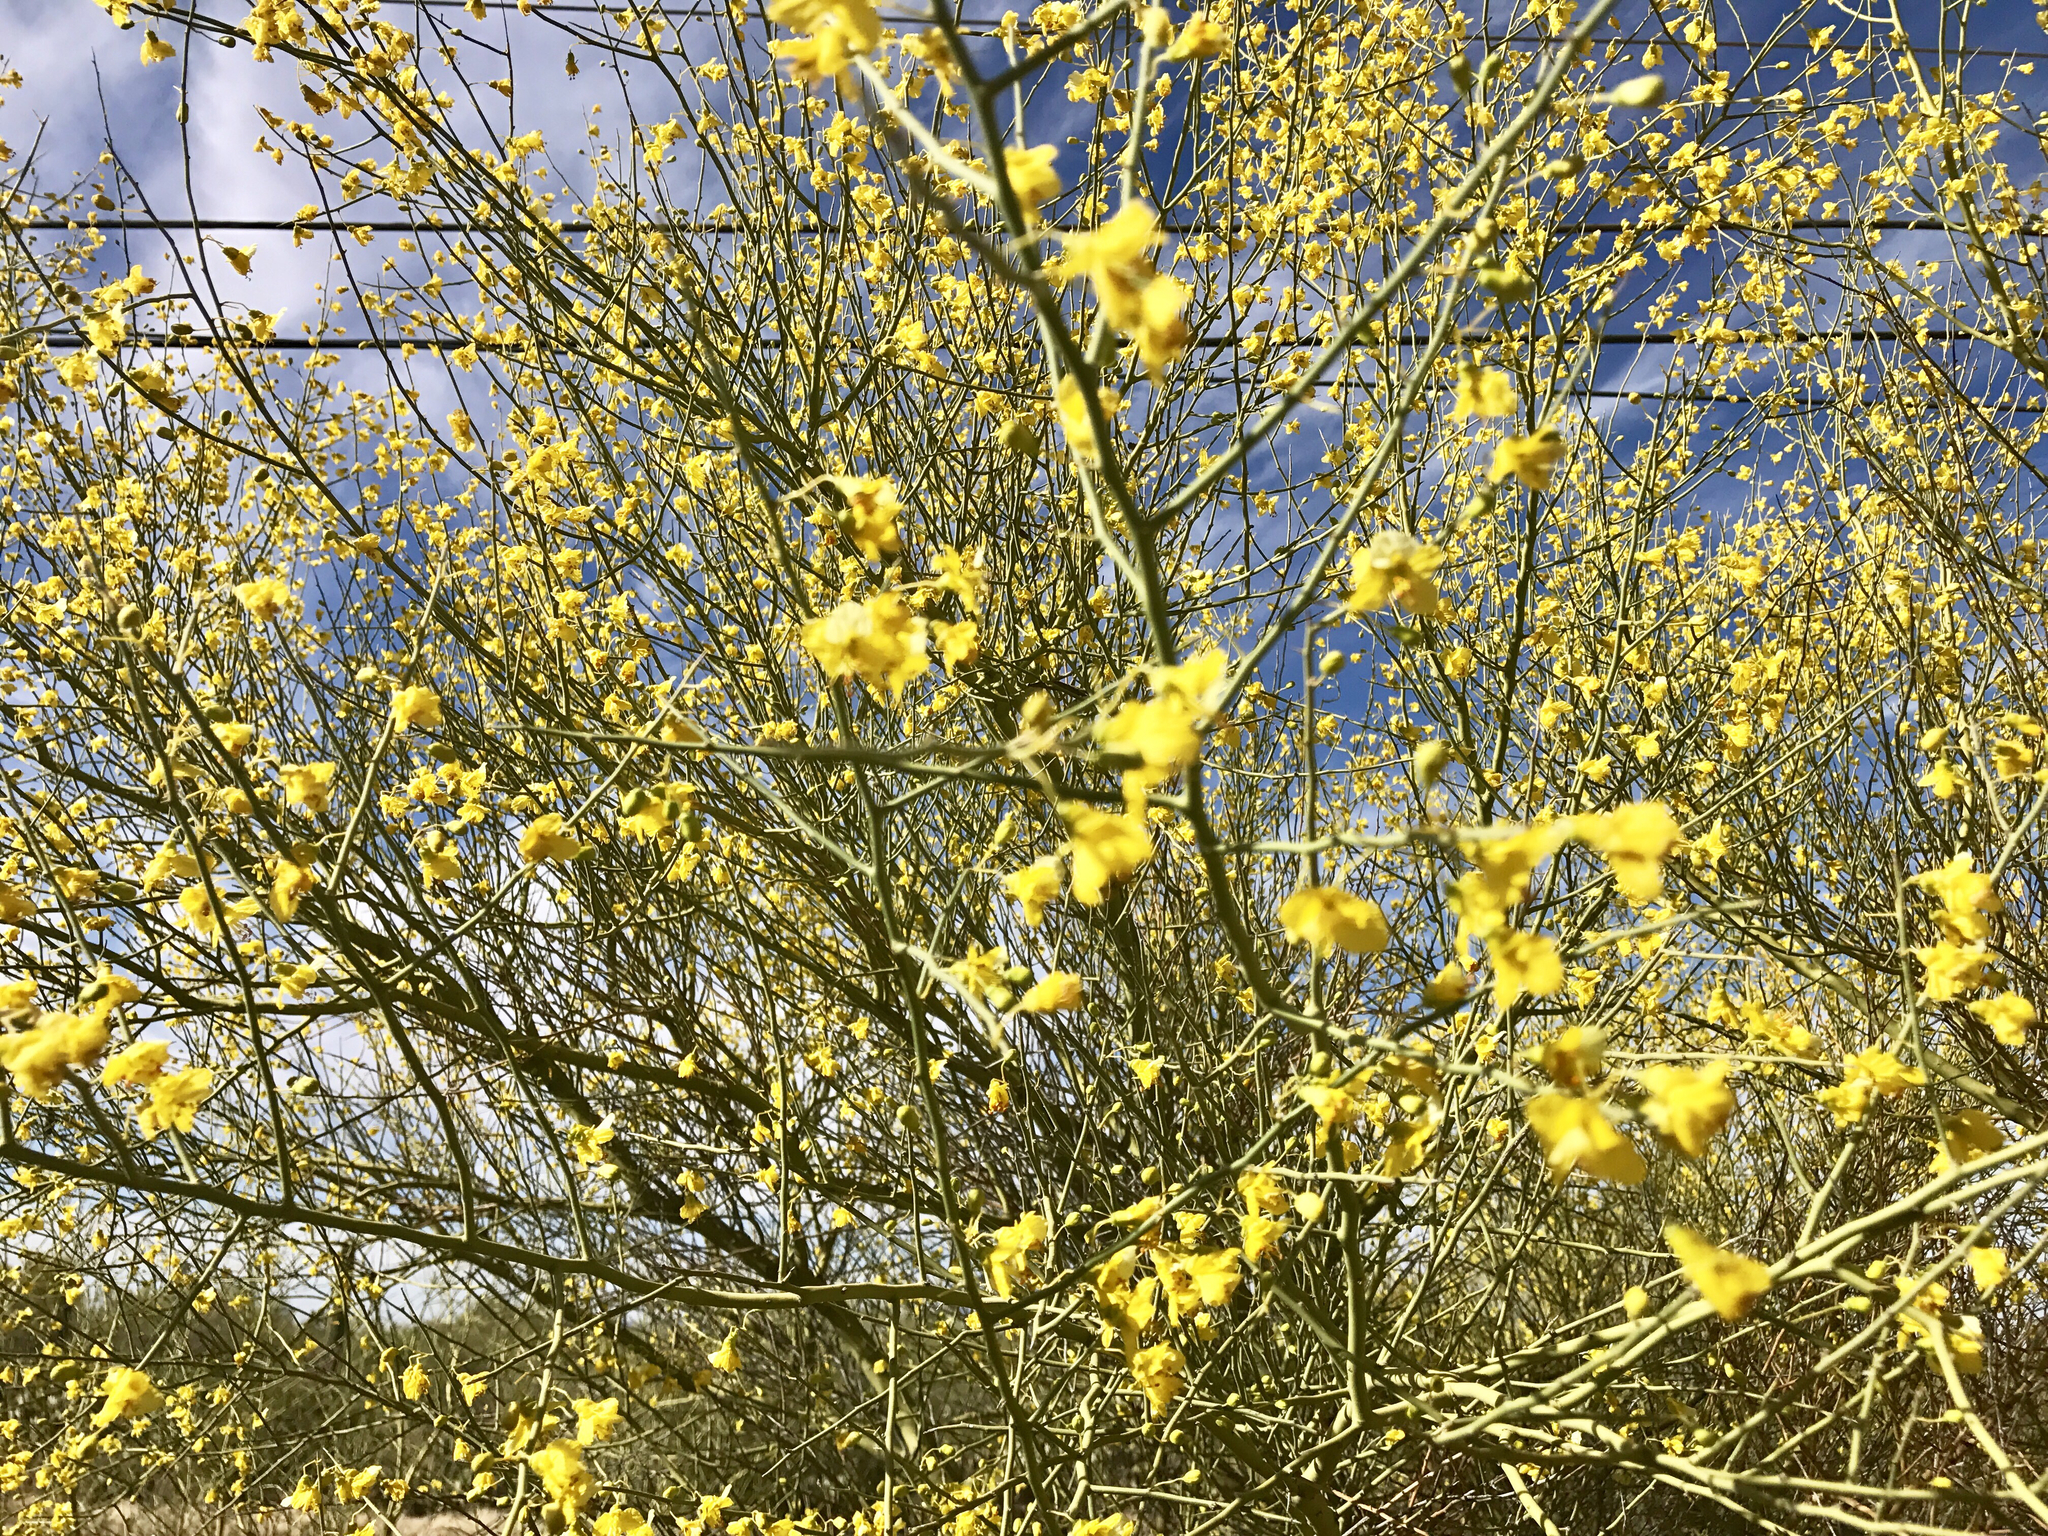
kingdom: Plantae
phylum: Tracheophyta
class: Magnoliopsida
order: Fabales
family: Fabaceae
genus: Parkinsonia
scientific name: Parkinsonia florida
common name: Blue paloverde
